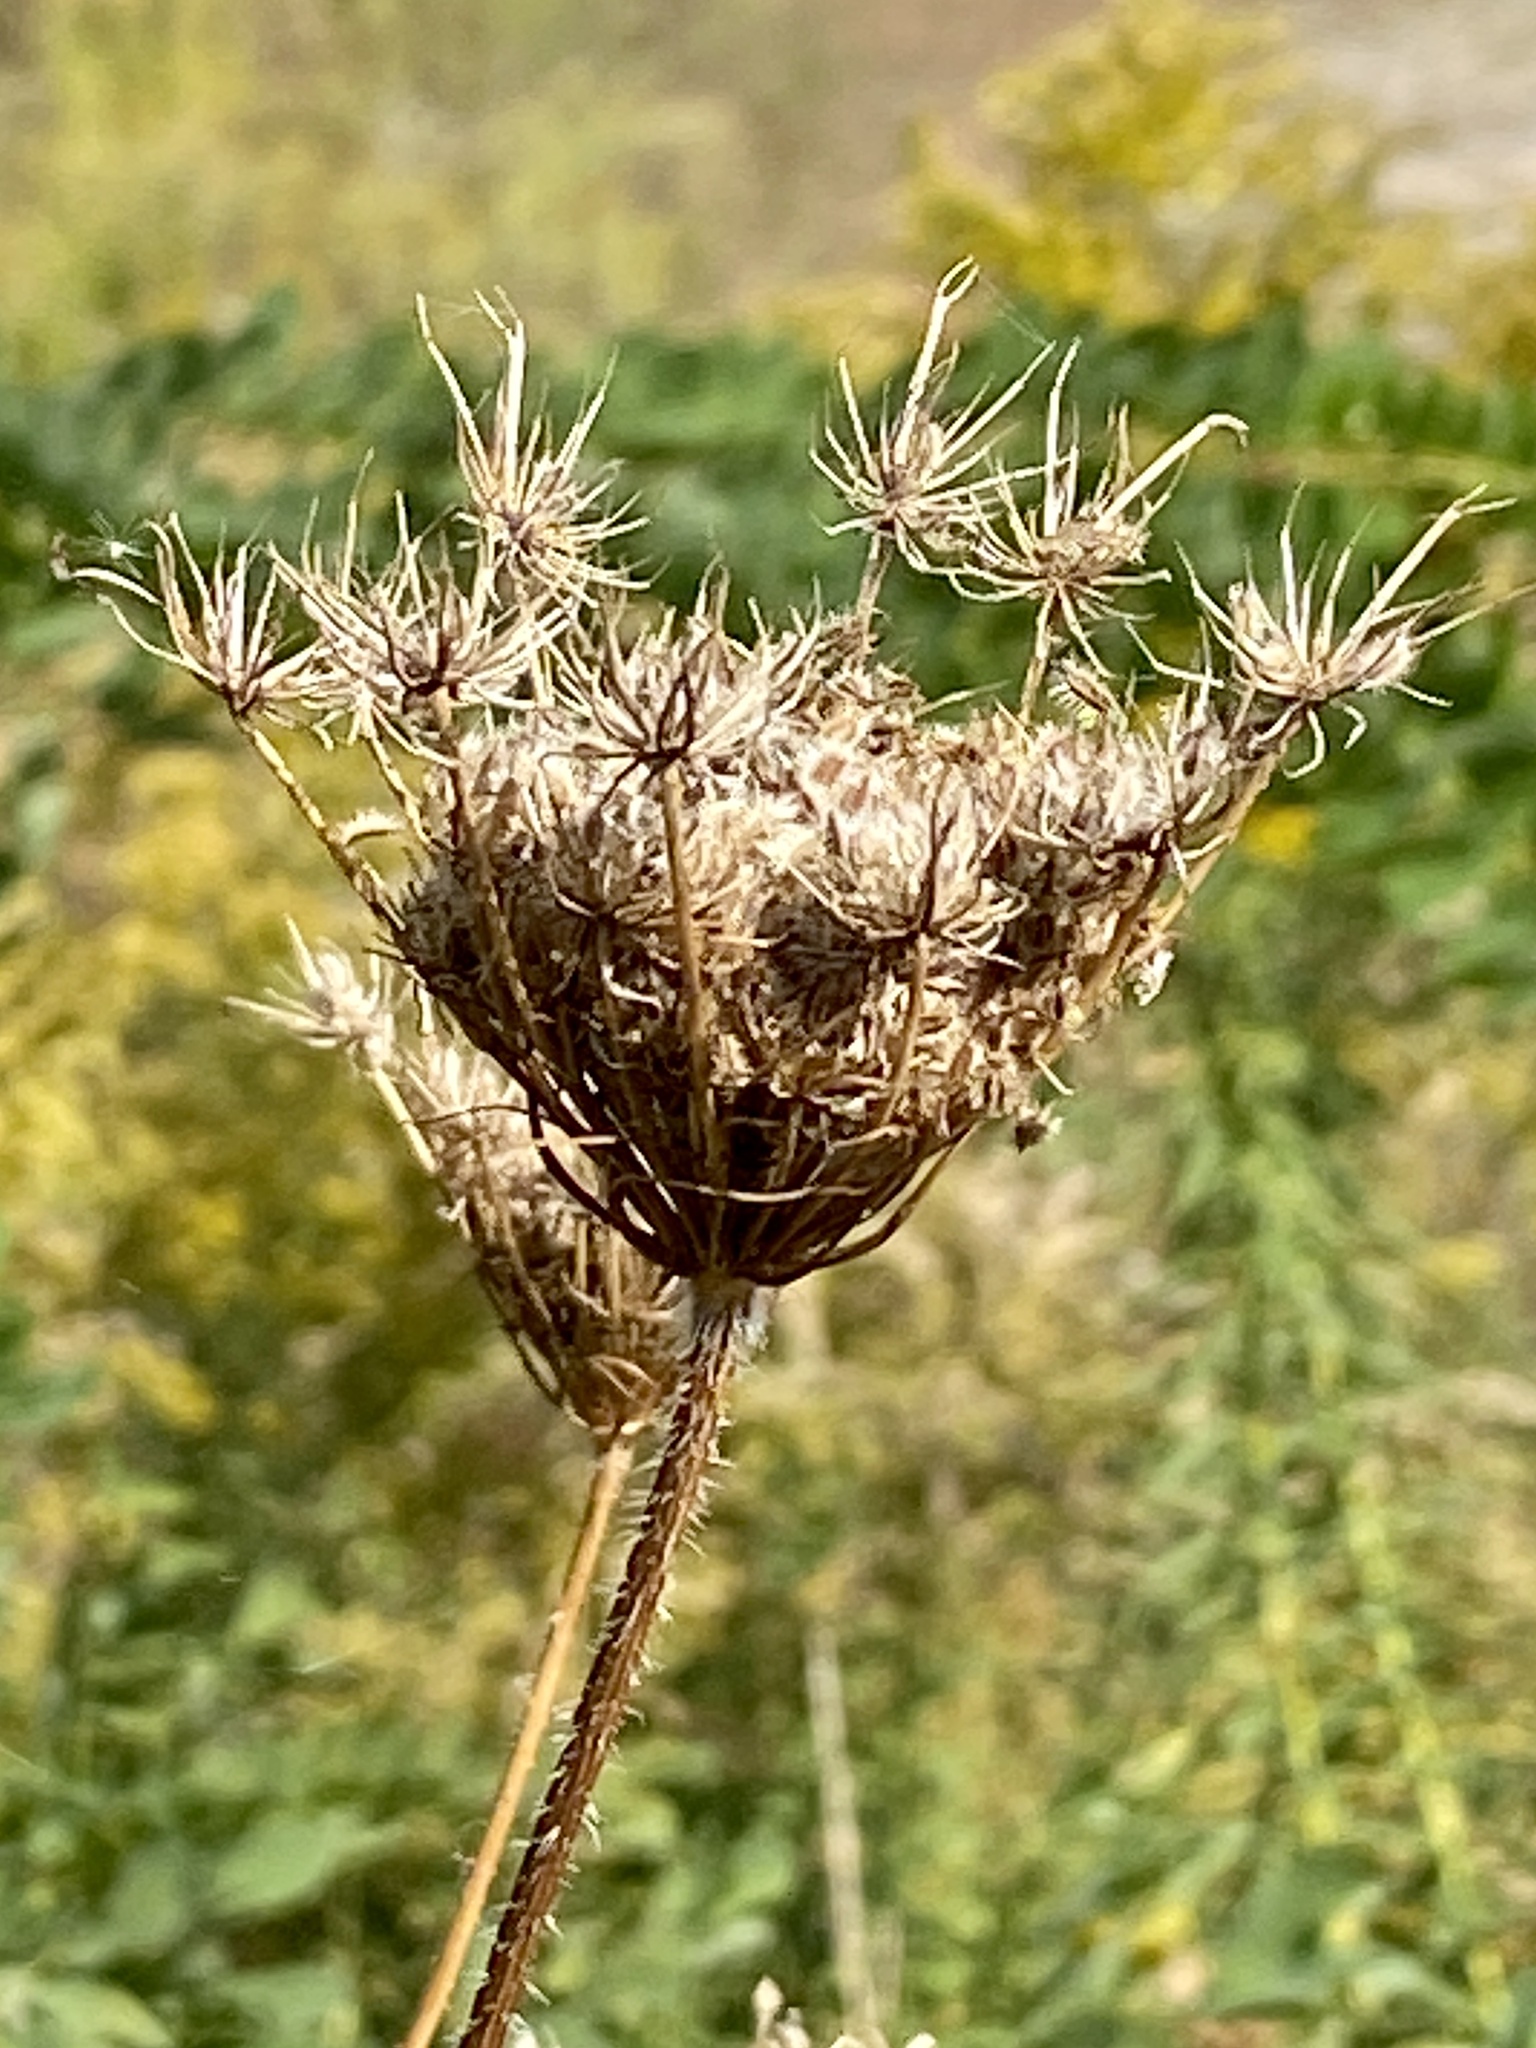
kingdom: Plantae
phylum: Tracheophyta
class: Magnoliopsida
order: Apiales
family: Apiaceae
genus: Daucus
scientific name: Daucus carota
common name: Wild carrot
